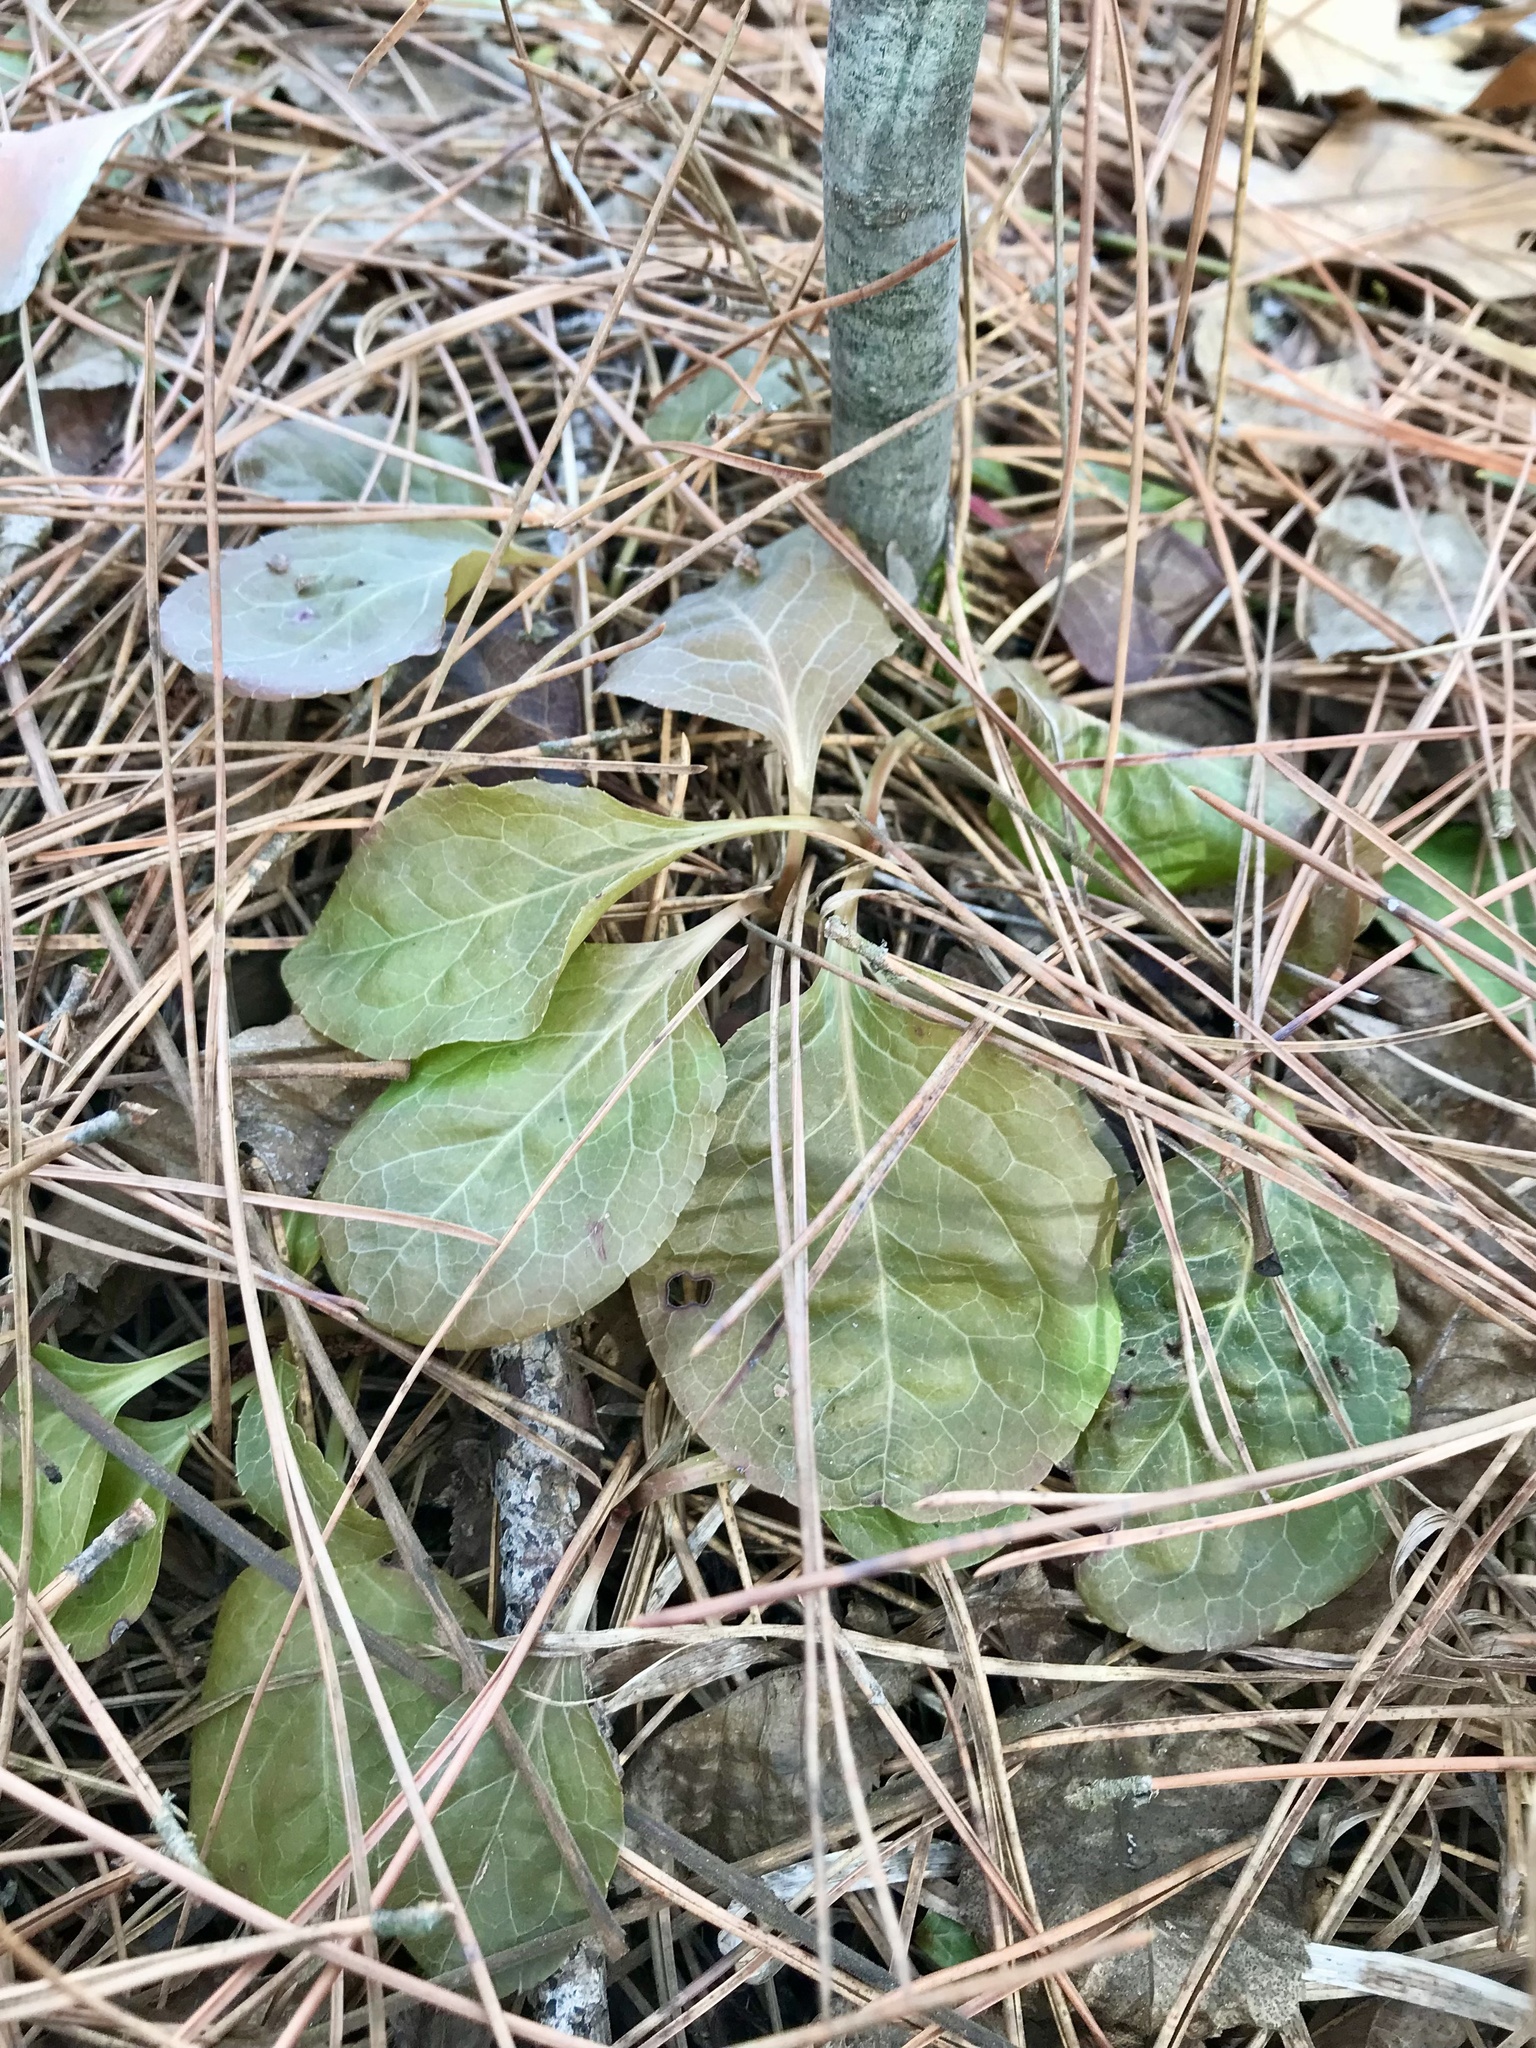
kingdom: Plantae
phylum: Tracheophyta
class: Magnoliopsida
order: Ericales
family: Ericaceae
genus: Pyrola
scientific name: Pyrola elliptica
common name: Shinleaf
